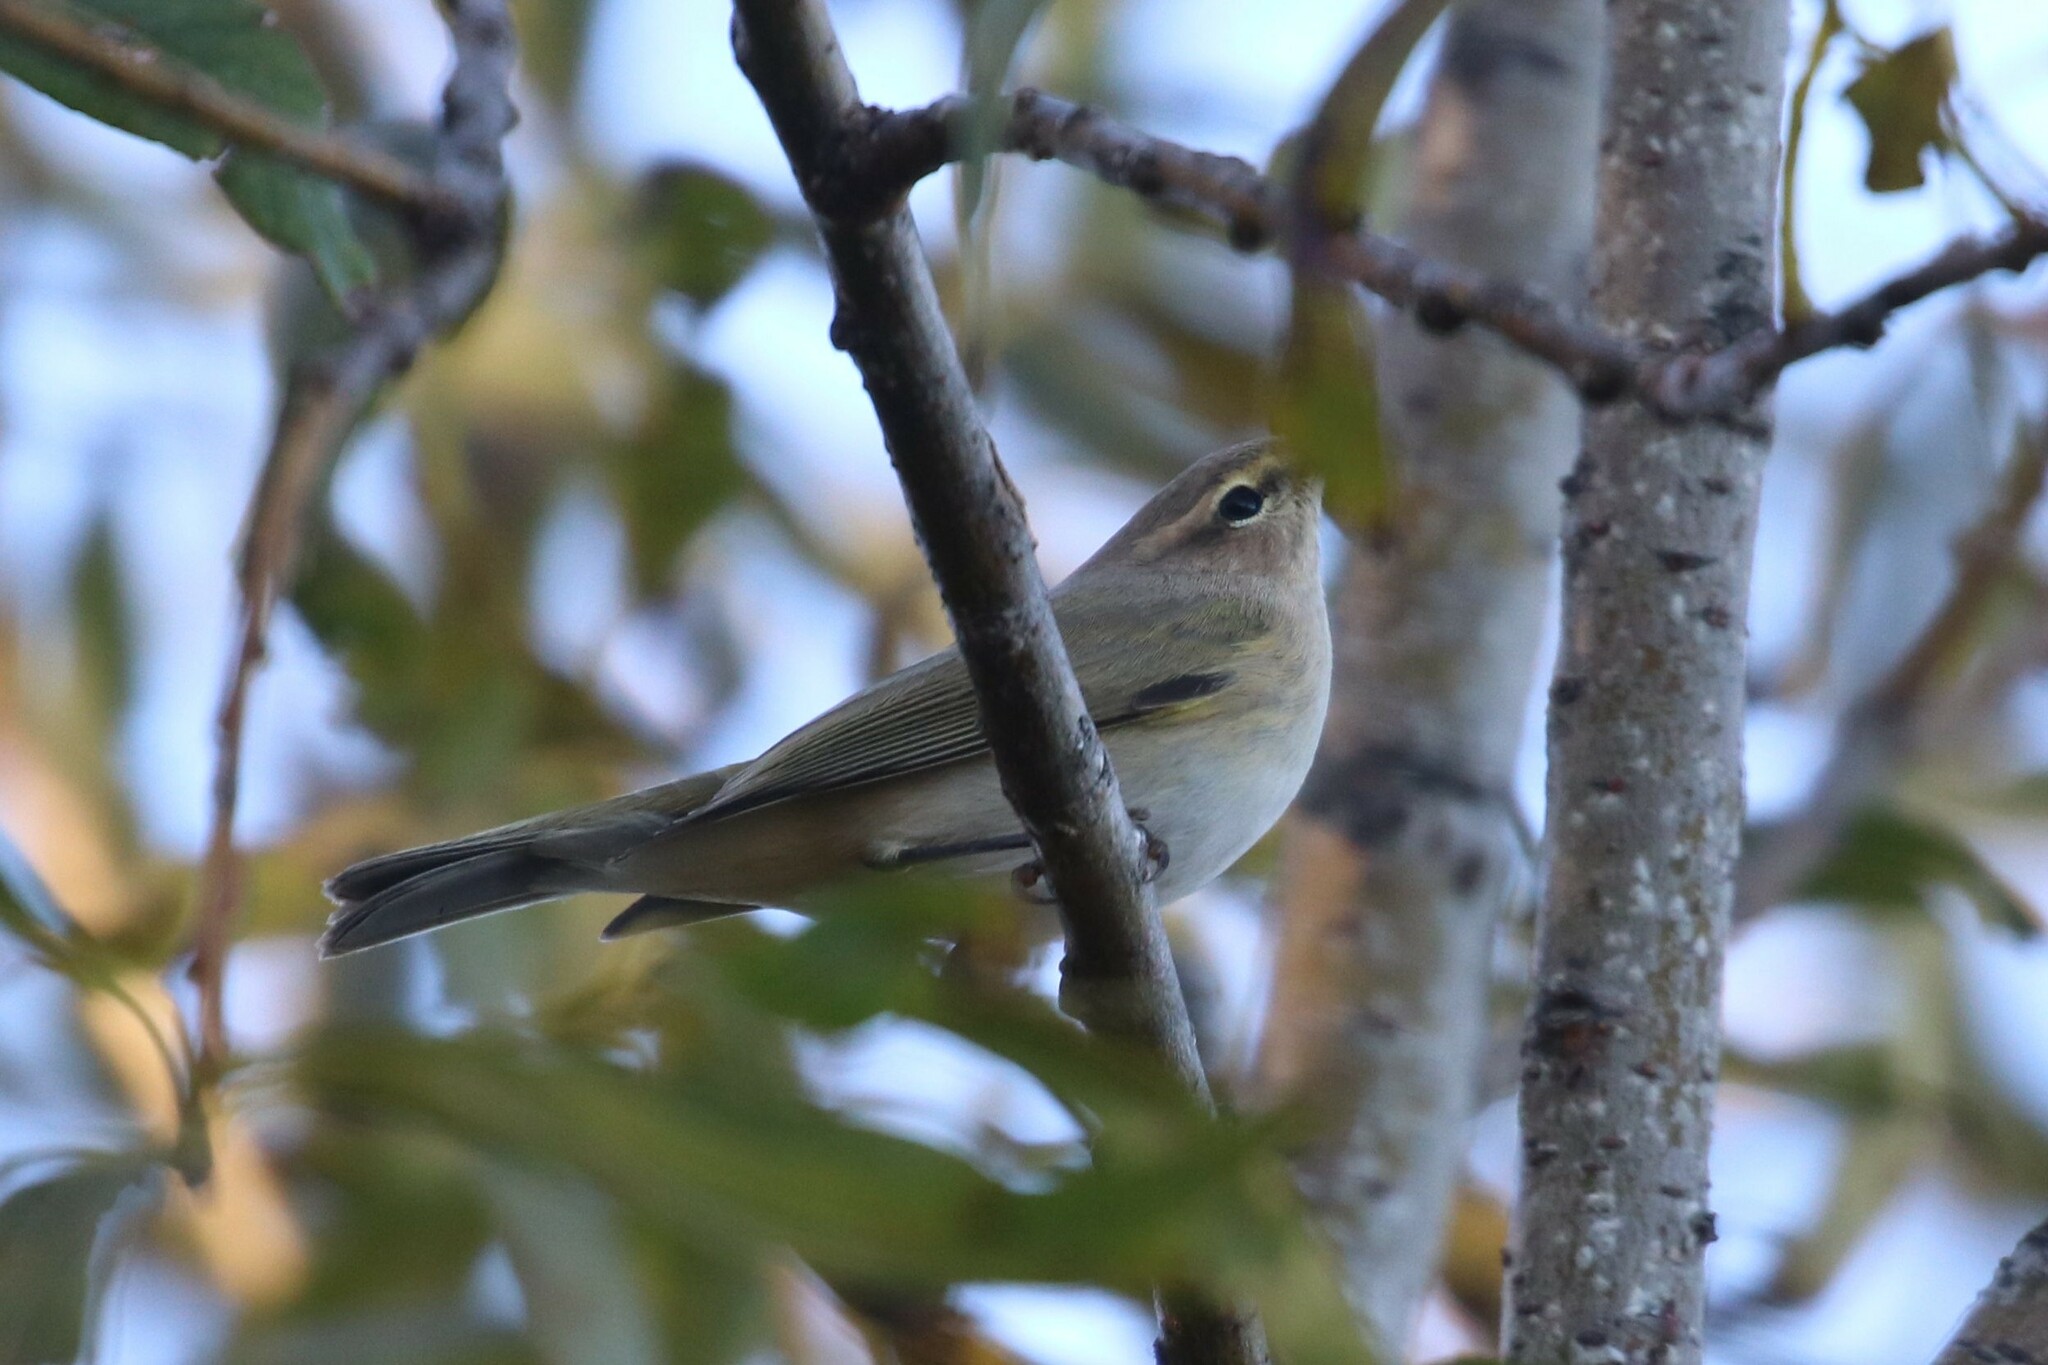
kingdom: Animalia
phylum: Chordata
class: Aves
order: Passeriformes
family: Phylloscopidae
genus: Phylloscopus
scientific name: Phylloscopus collybita
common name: Common chiffchaff
